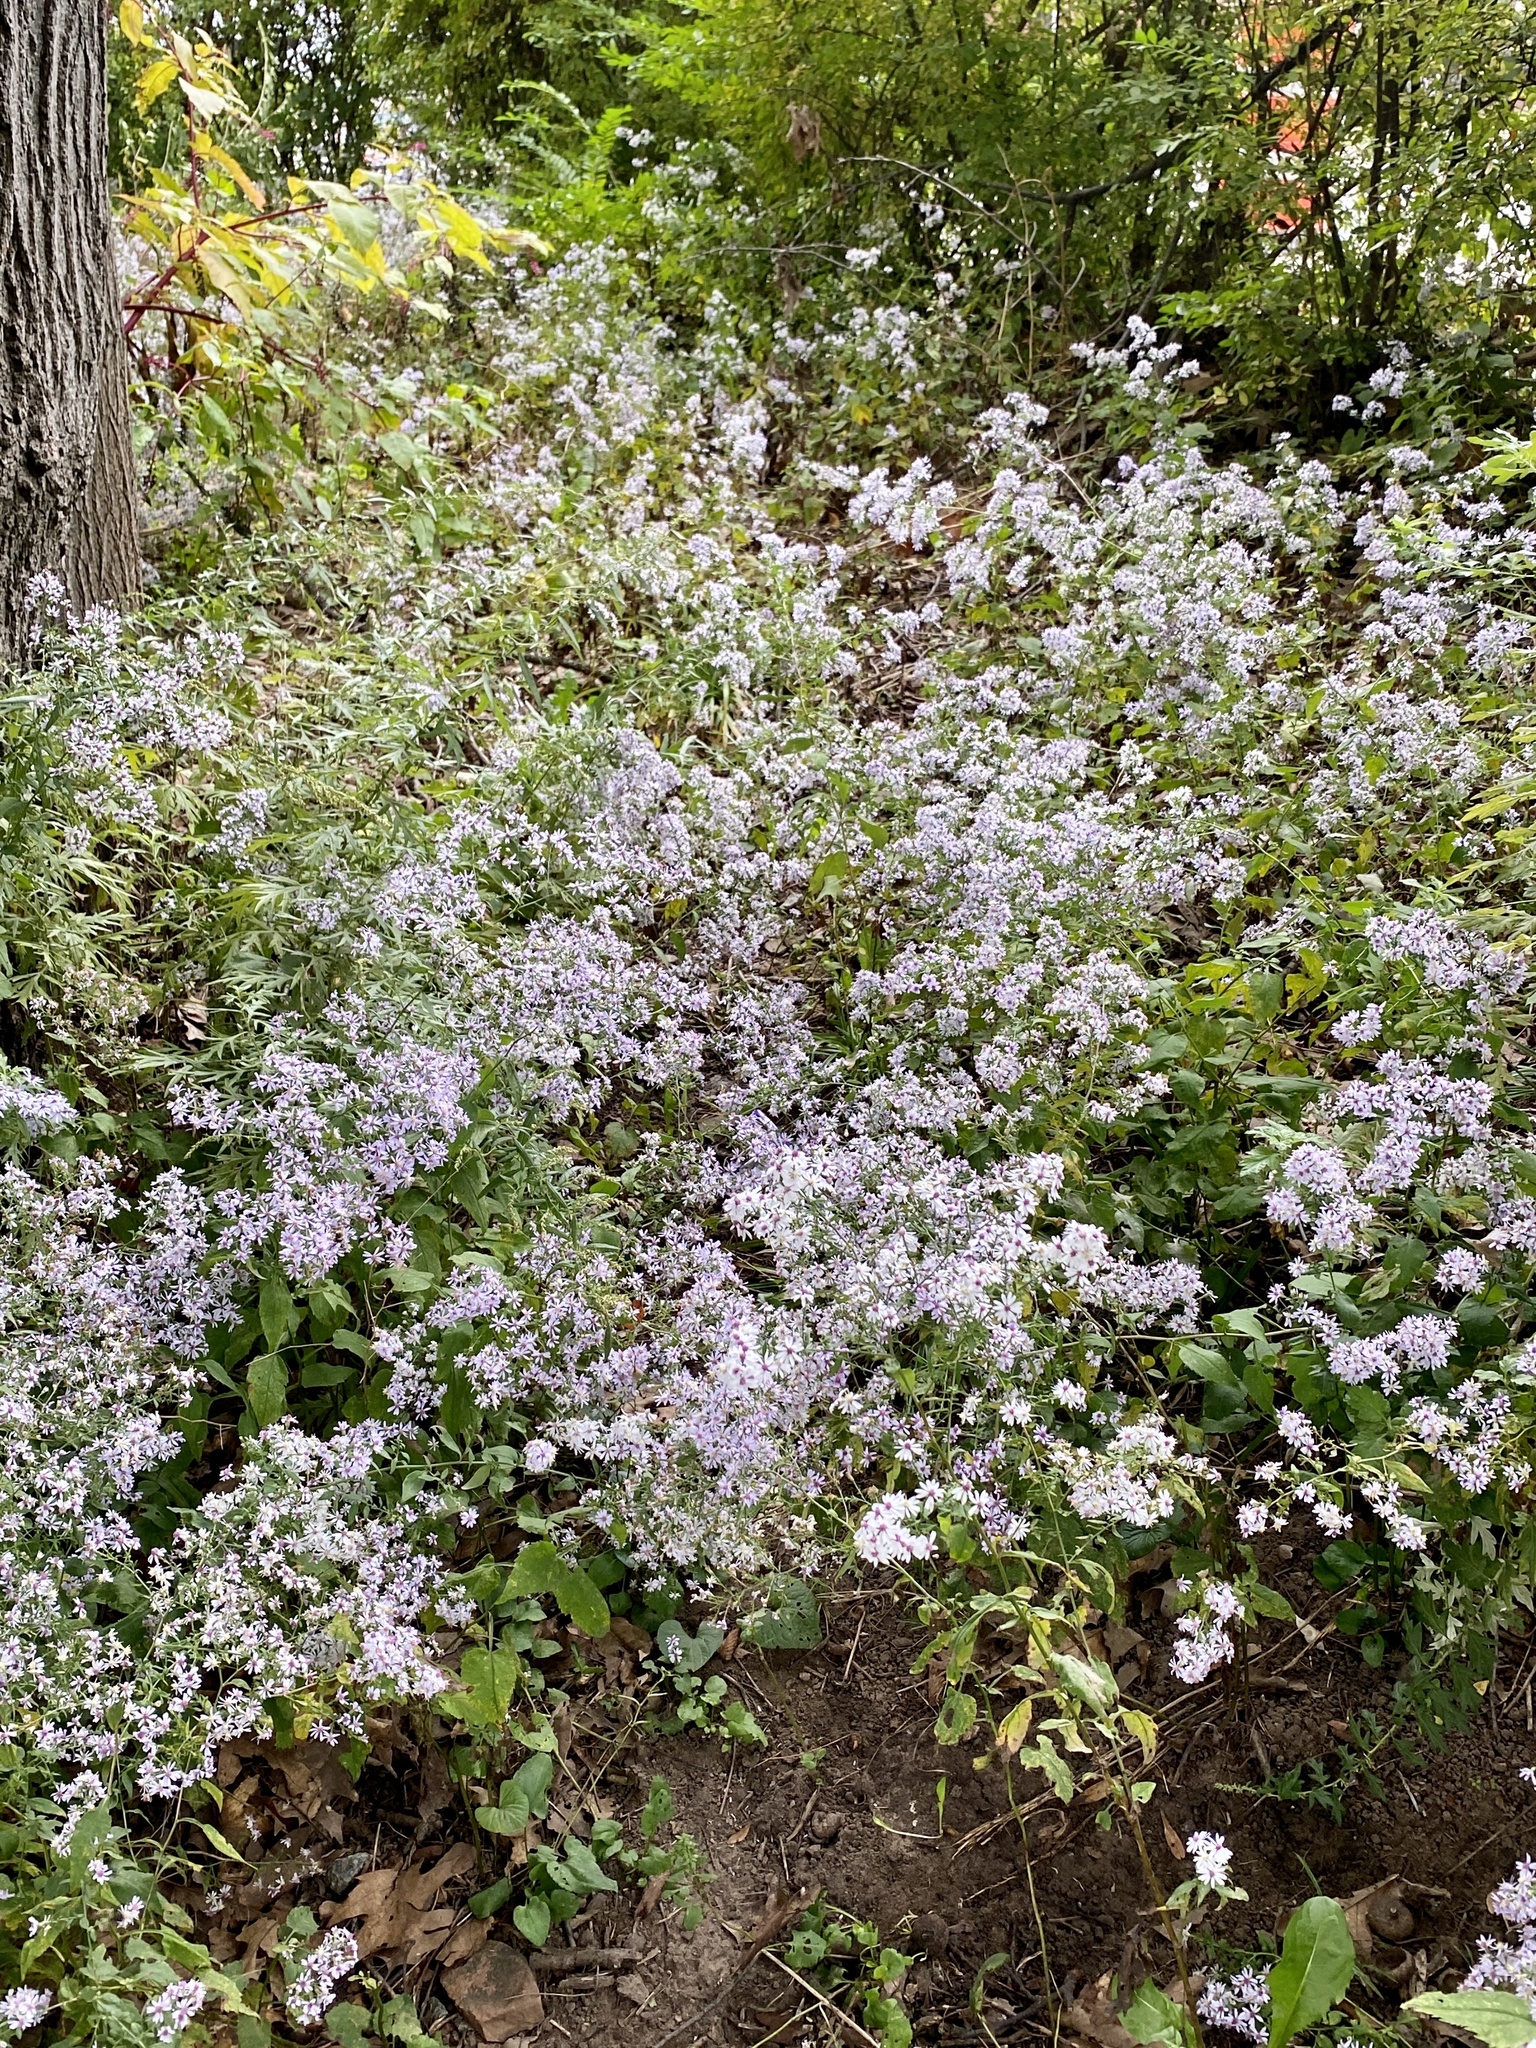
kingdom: Plantae
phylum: Tracheophyta
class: Magnoliopsida
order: Asterales
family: Asteraceae
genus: Symphyotrichum
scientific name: Symphyotrichum cordifolium
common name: Beeweed
